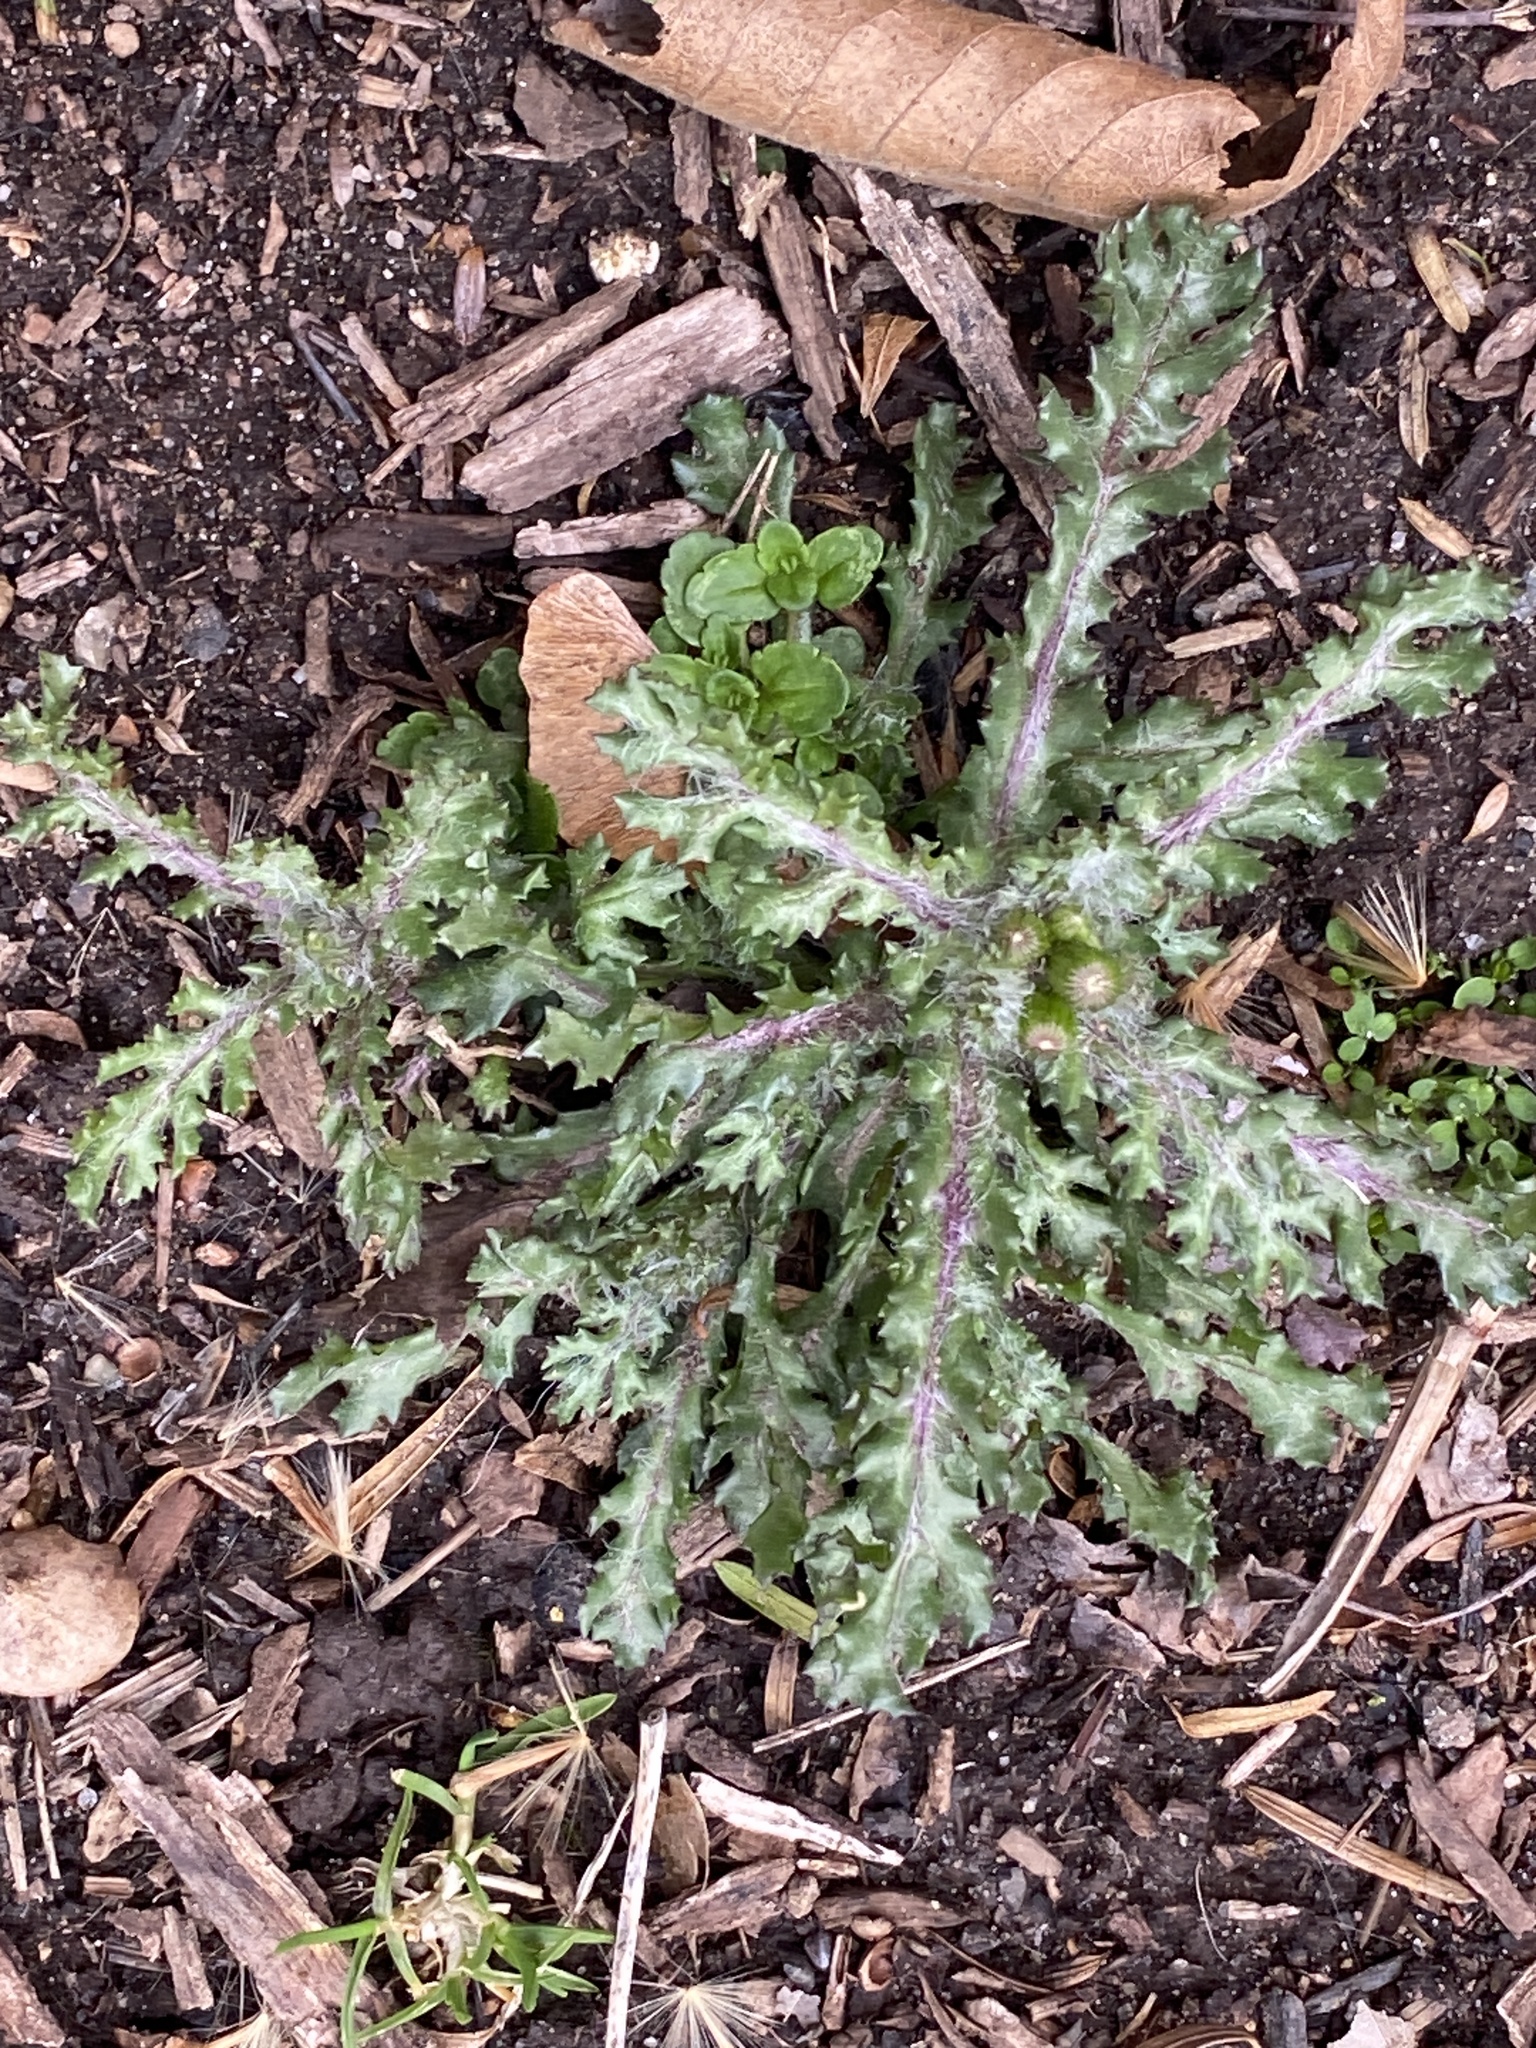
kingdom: Plantae
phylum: Tracheophyta
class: Magnoliopsida
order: Asterales
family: Asteraceae
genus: Senecio
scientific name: Senecio vulgaris
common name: Old-man-in-the-spring
